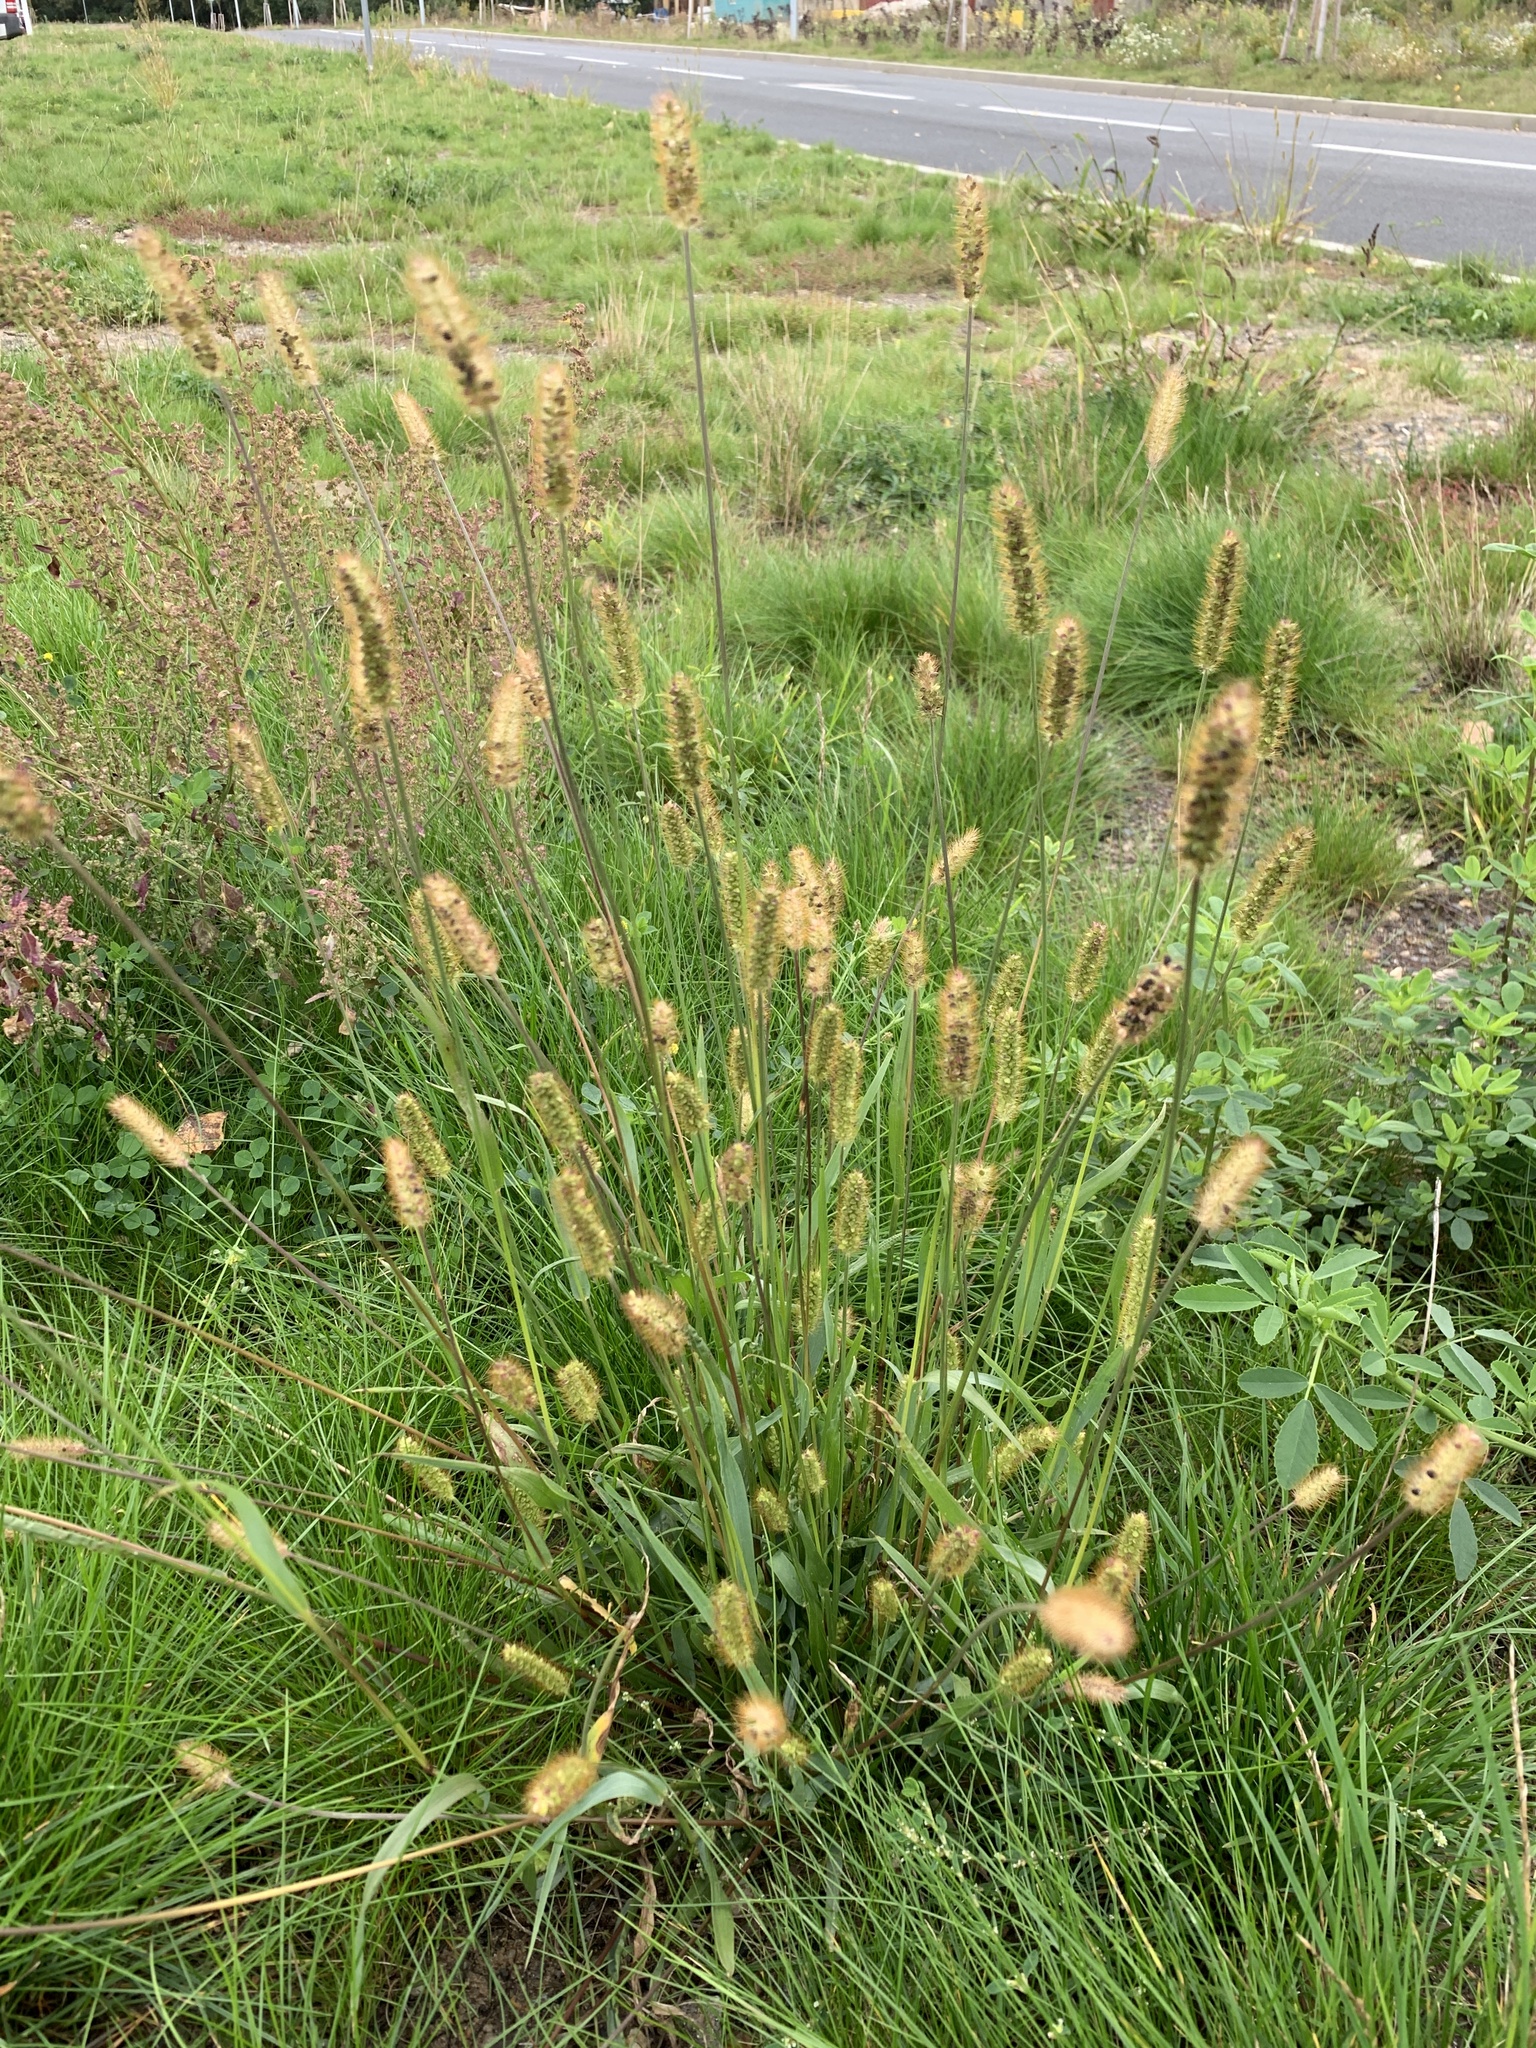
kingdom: Plantae
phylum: Tracheophyta
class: Liliopsida
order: Poales
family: Poaceae
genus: Setaria
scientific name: Setaria pumila
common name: Yellow bristle-grass
